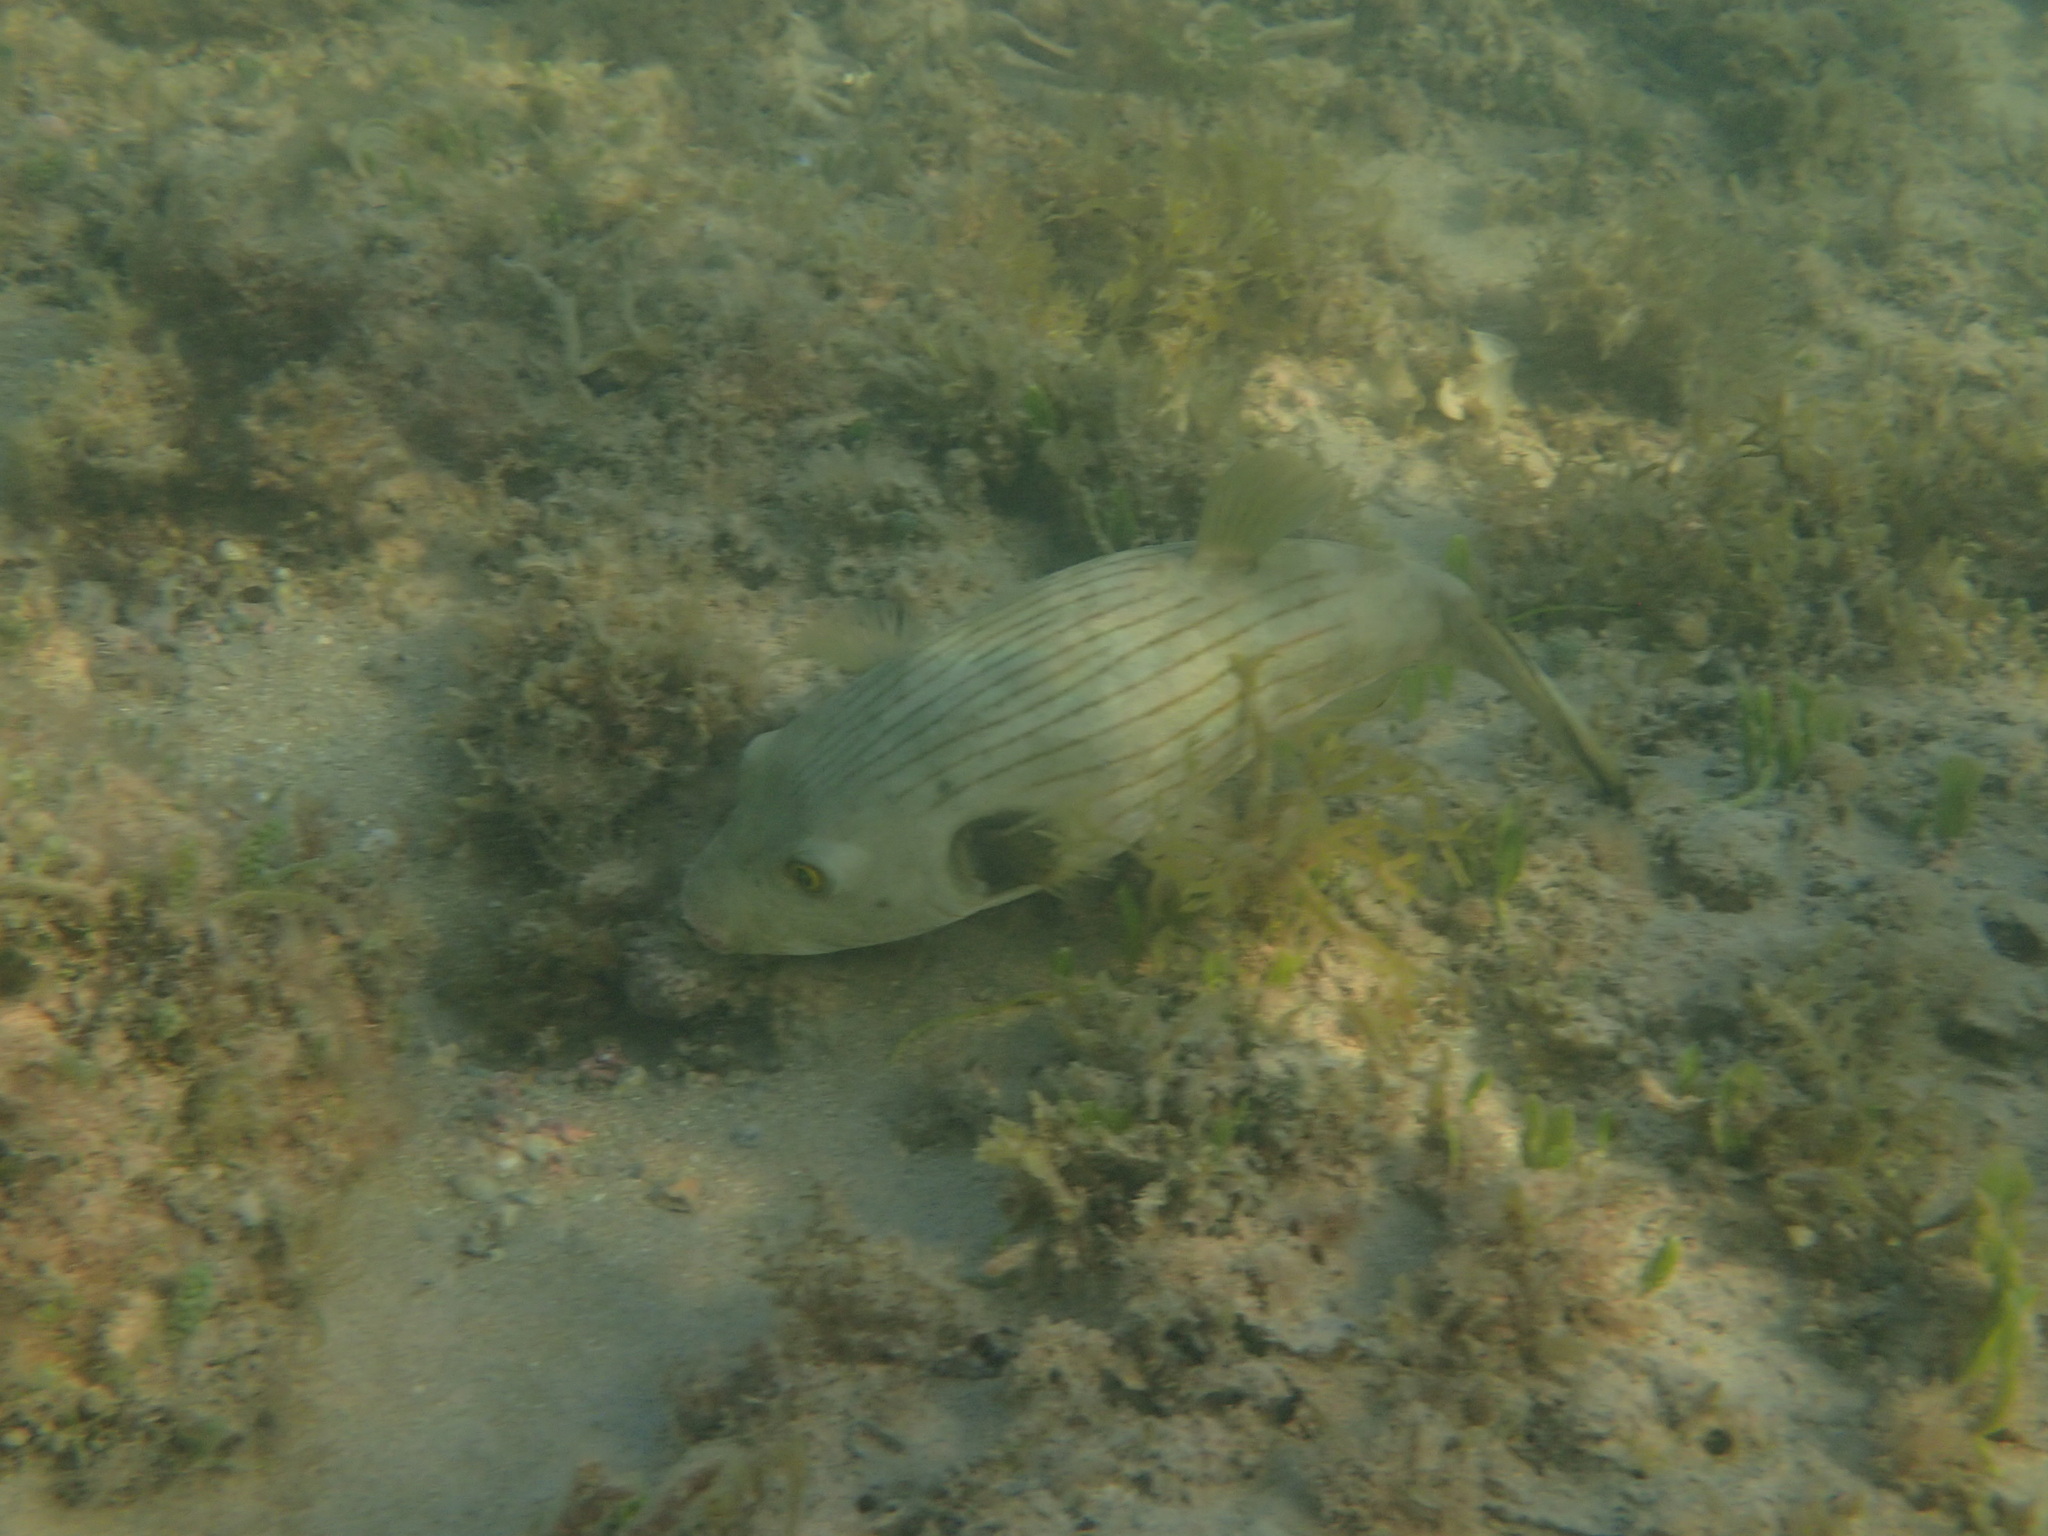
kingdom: Animalia
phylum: Chordata
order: Tetraodontiformes
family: Tetraodontidae
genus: Arothron
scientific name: Arothron manilensis
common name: Narrow-lined puffer
